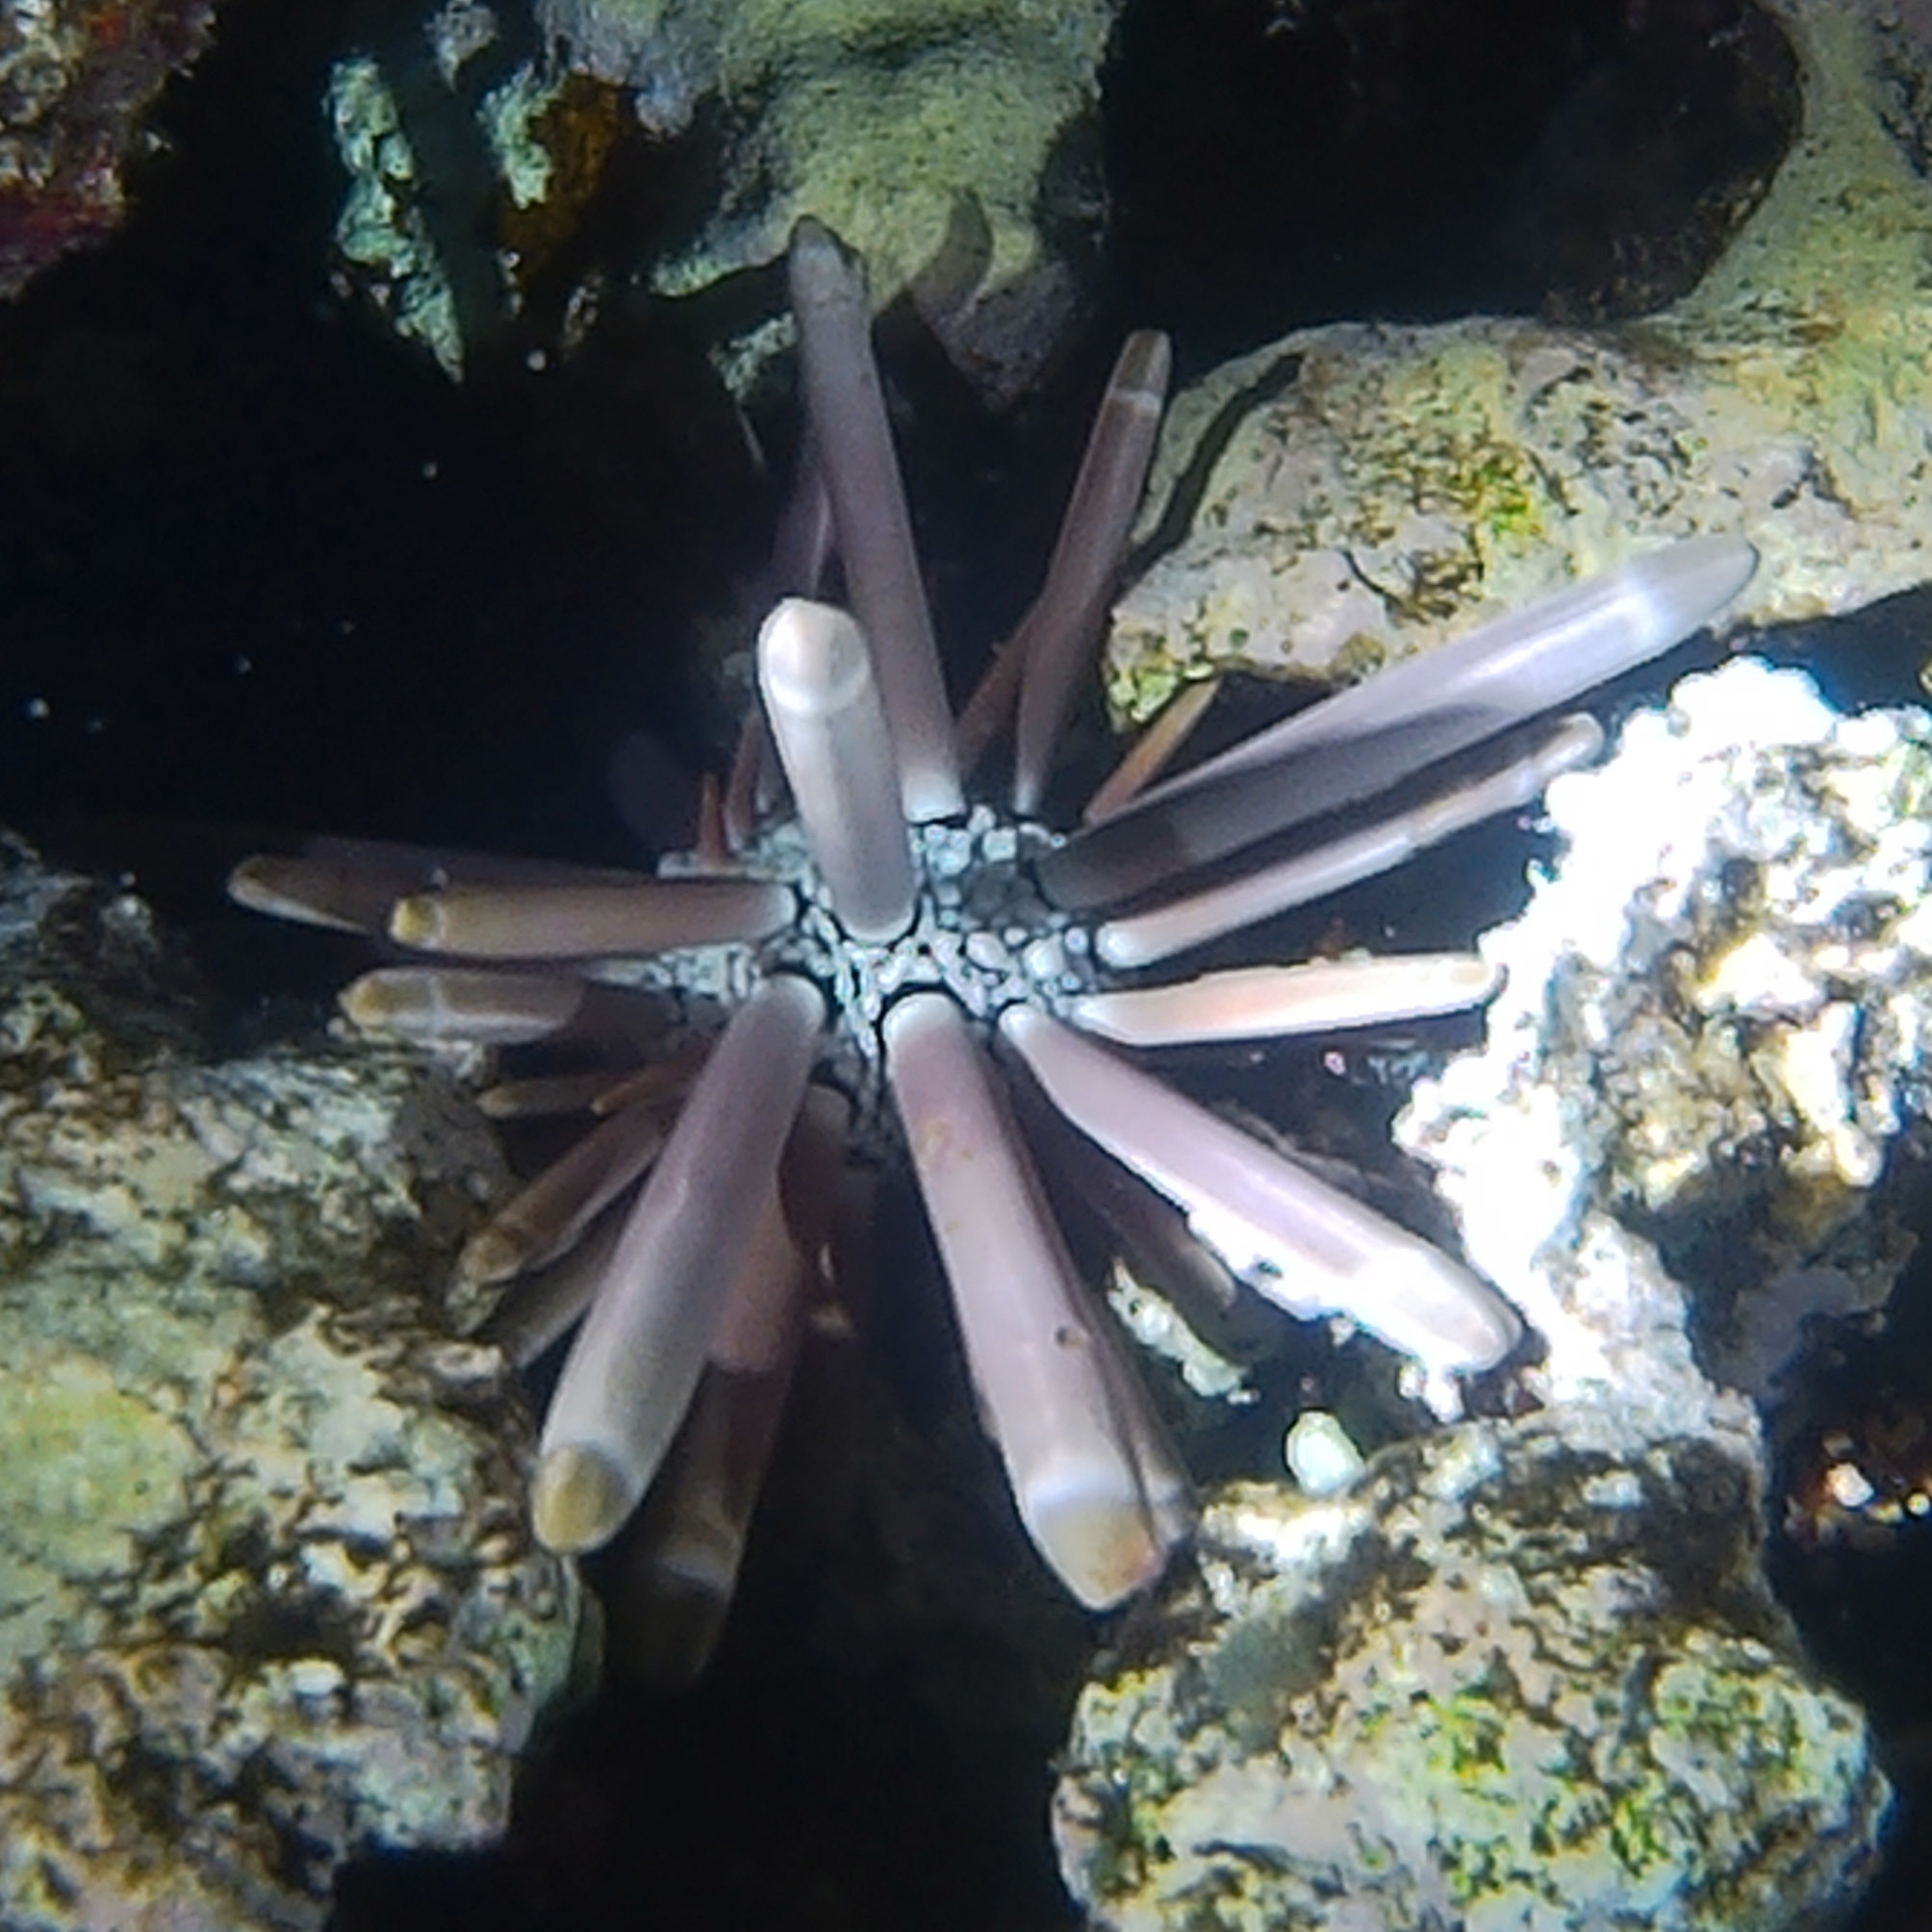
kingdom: Animalia
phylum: Echinodermata
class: Echinoidea
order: Camarodonta
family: Echinometridae
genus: Heterocentrotus
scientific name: Heterocentrotus mamillatus
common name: Slate pencil urchin
